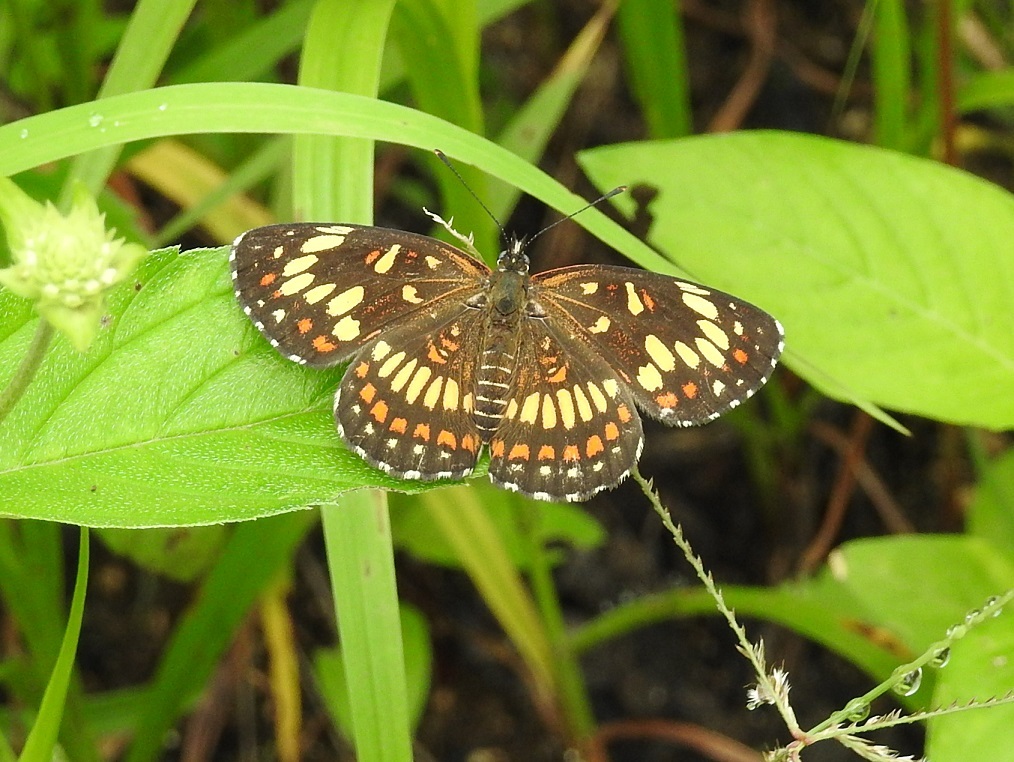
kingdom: Animalia
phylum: Arthropoda
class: Insecta
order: Lepidoptera
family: Nymphalidae
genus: Thessalia
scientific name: Thessalia theona
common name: Nymphalid moth
